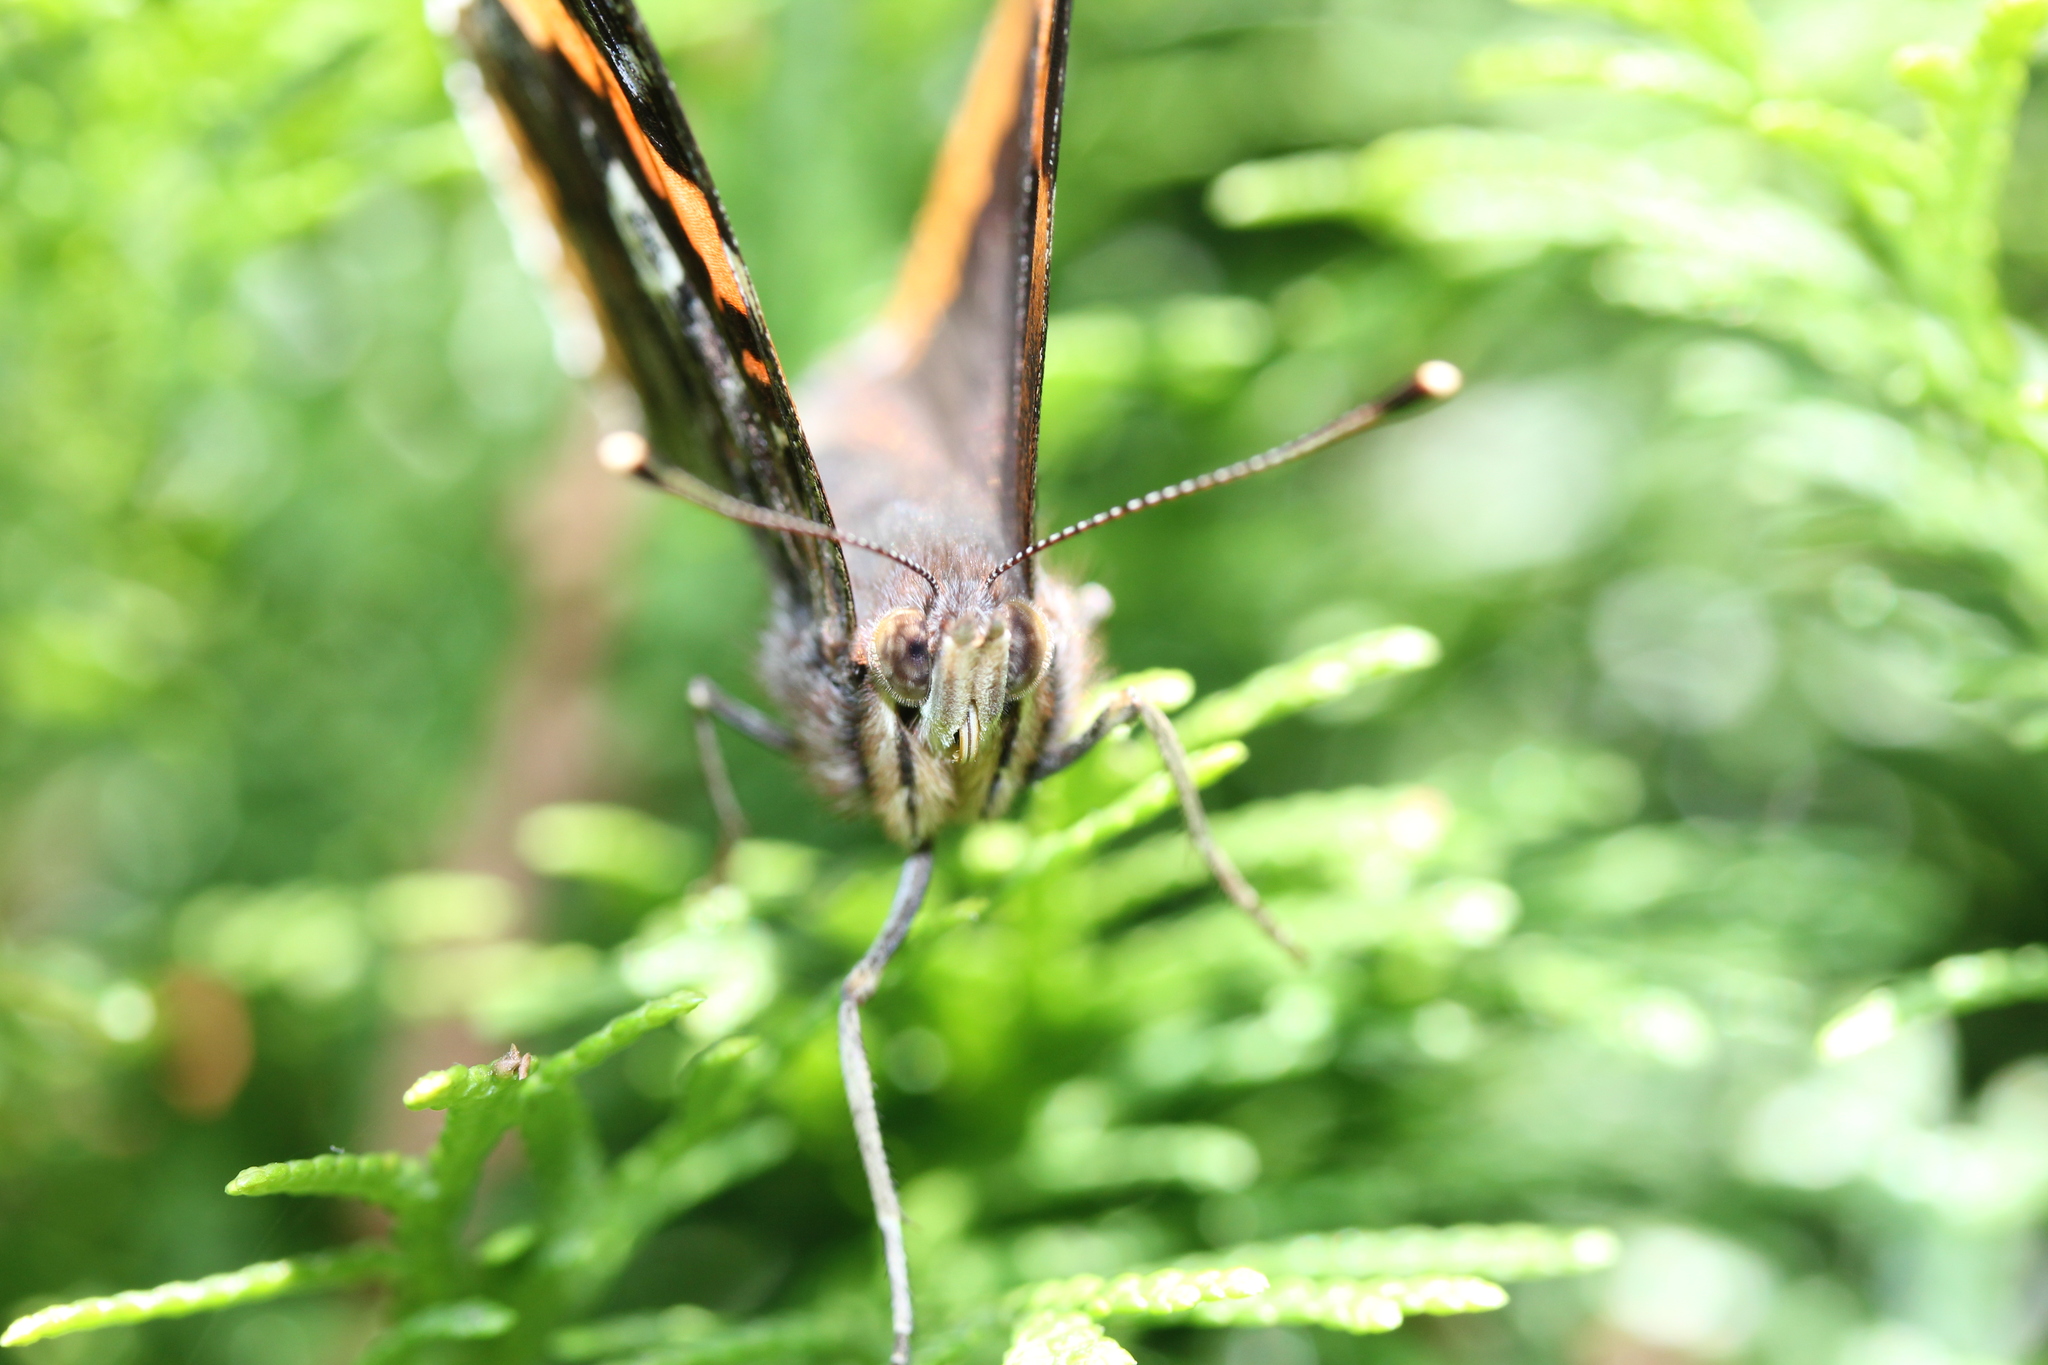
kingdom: Animalia
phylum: Arthropoda
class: Insecta
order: Lepidoptera
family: Nymphalidae
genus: Vanessa
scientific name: Vanessa atalanta
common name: Red admiral
